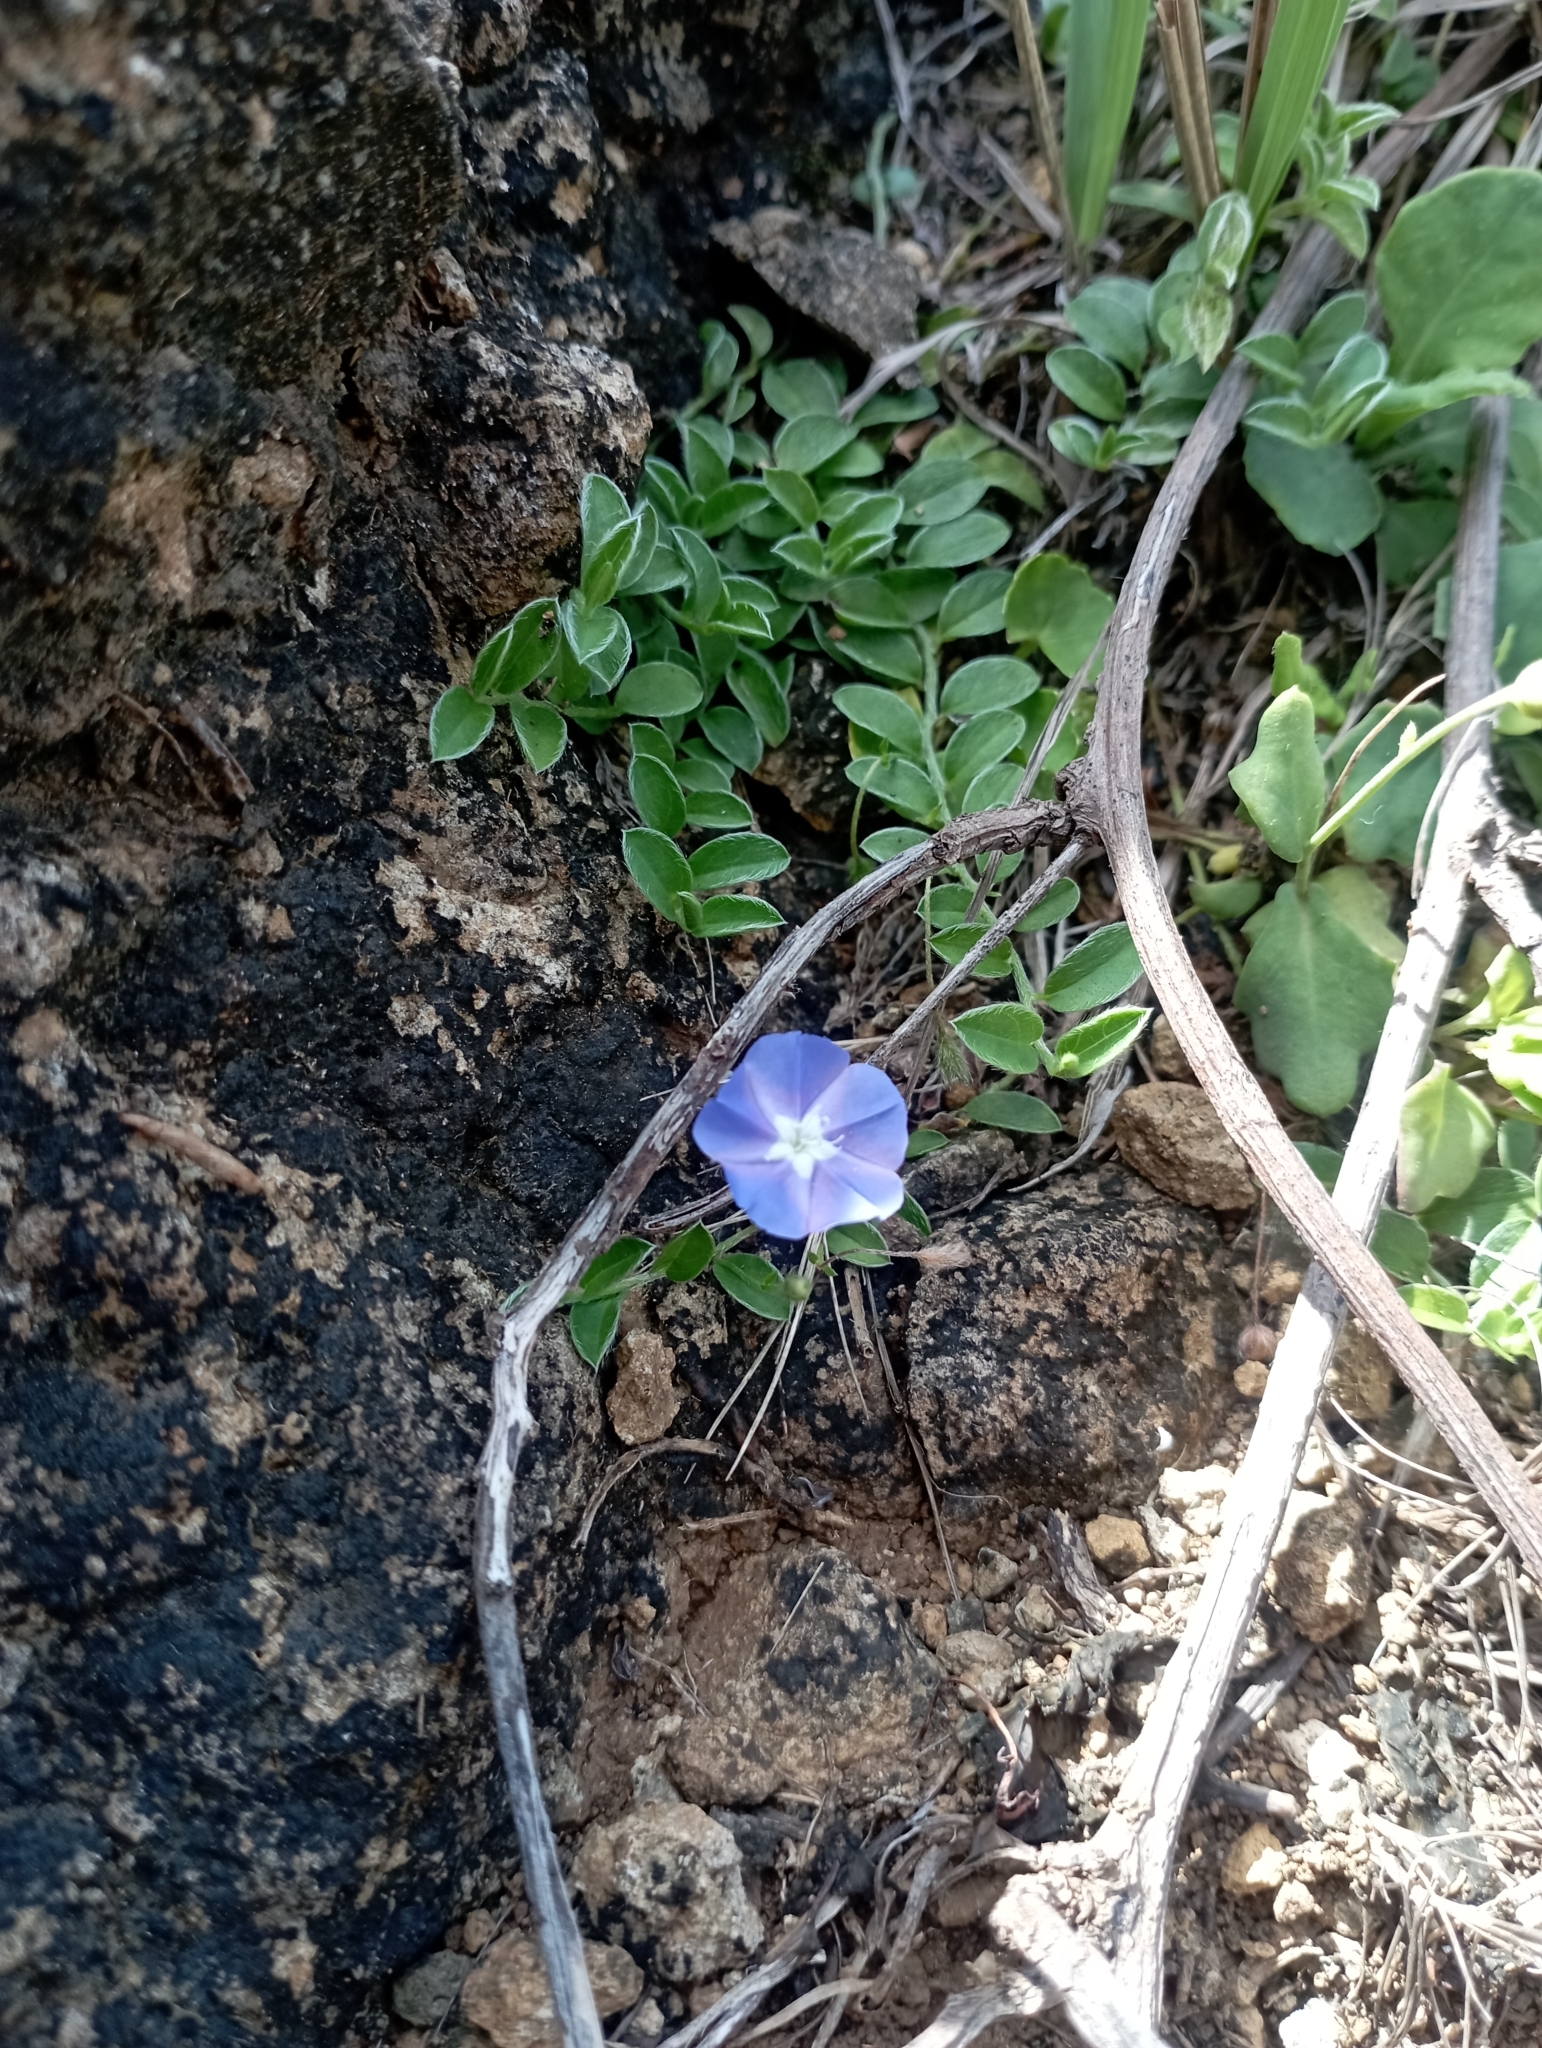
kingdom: Plantae
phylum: Tracheophyta
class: Magnoliopsida
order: Solanales
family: Convolvulaceae
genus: Evolvulus
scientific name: Evolvulus alsinoides
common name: Slender dwarf morning-glory
